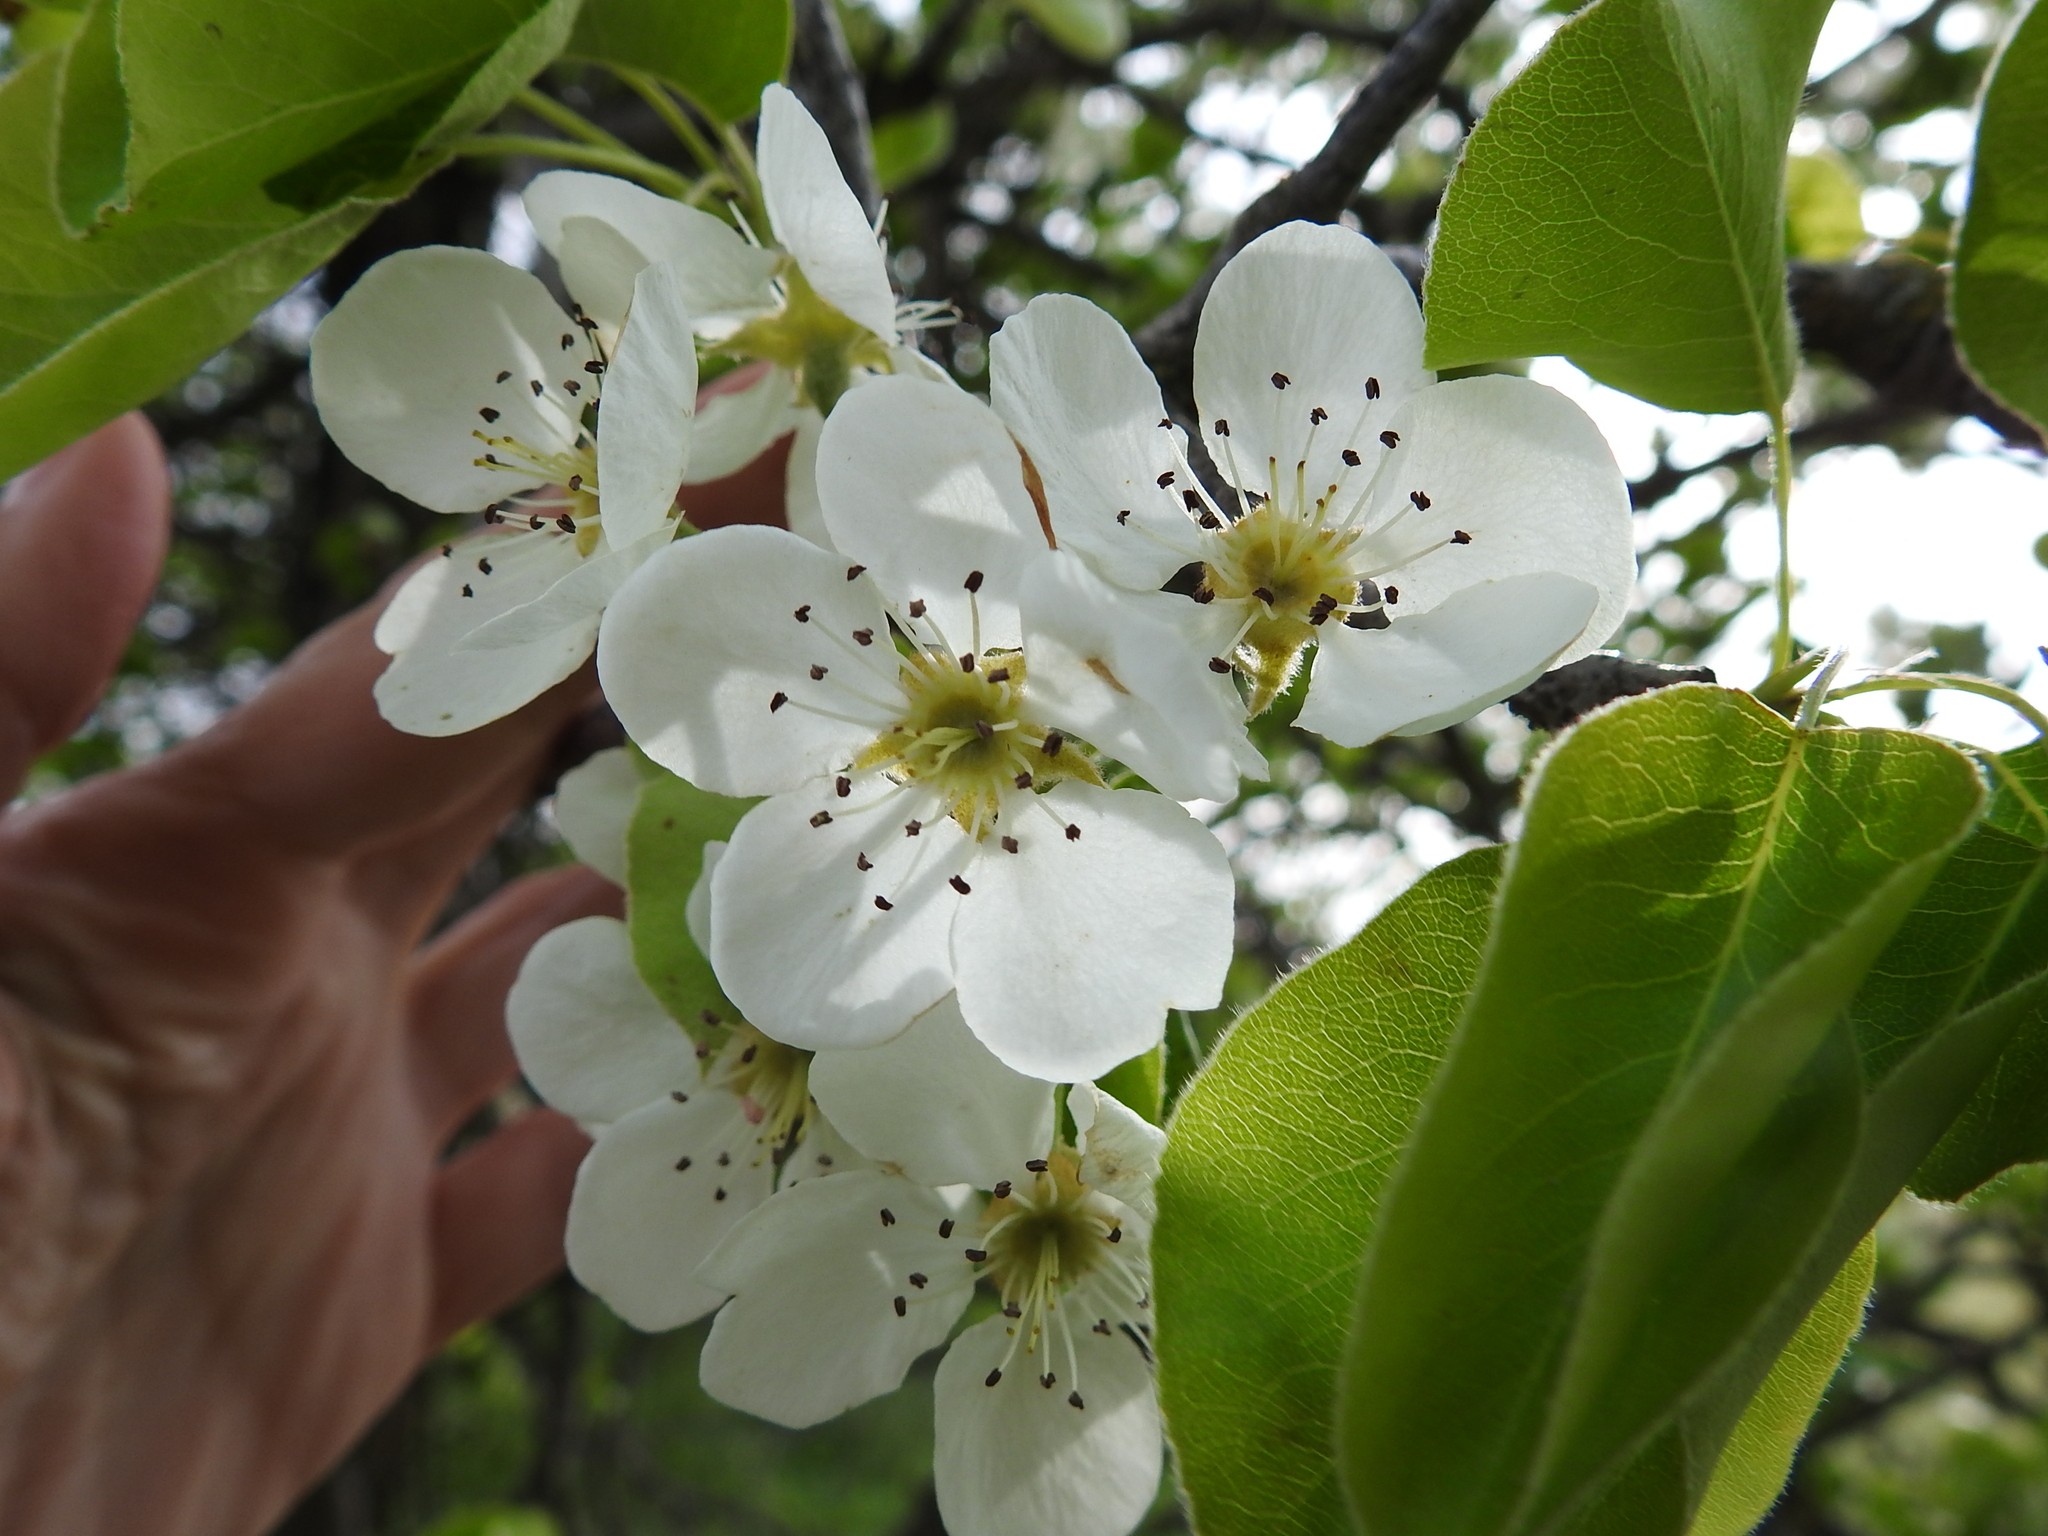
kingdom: Plantae
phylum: Tracheophyta
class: Magnoliopsida
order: Rosales
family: Rosaceae
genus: Pyrus
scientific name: Pyrus communis
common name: Pear
